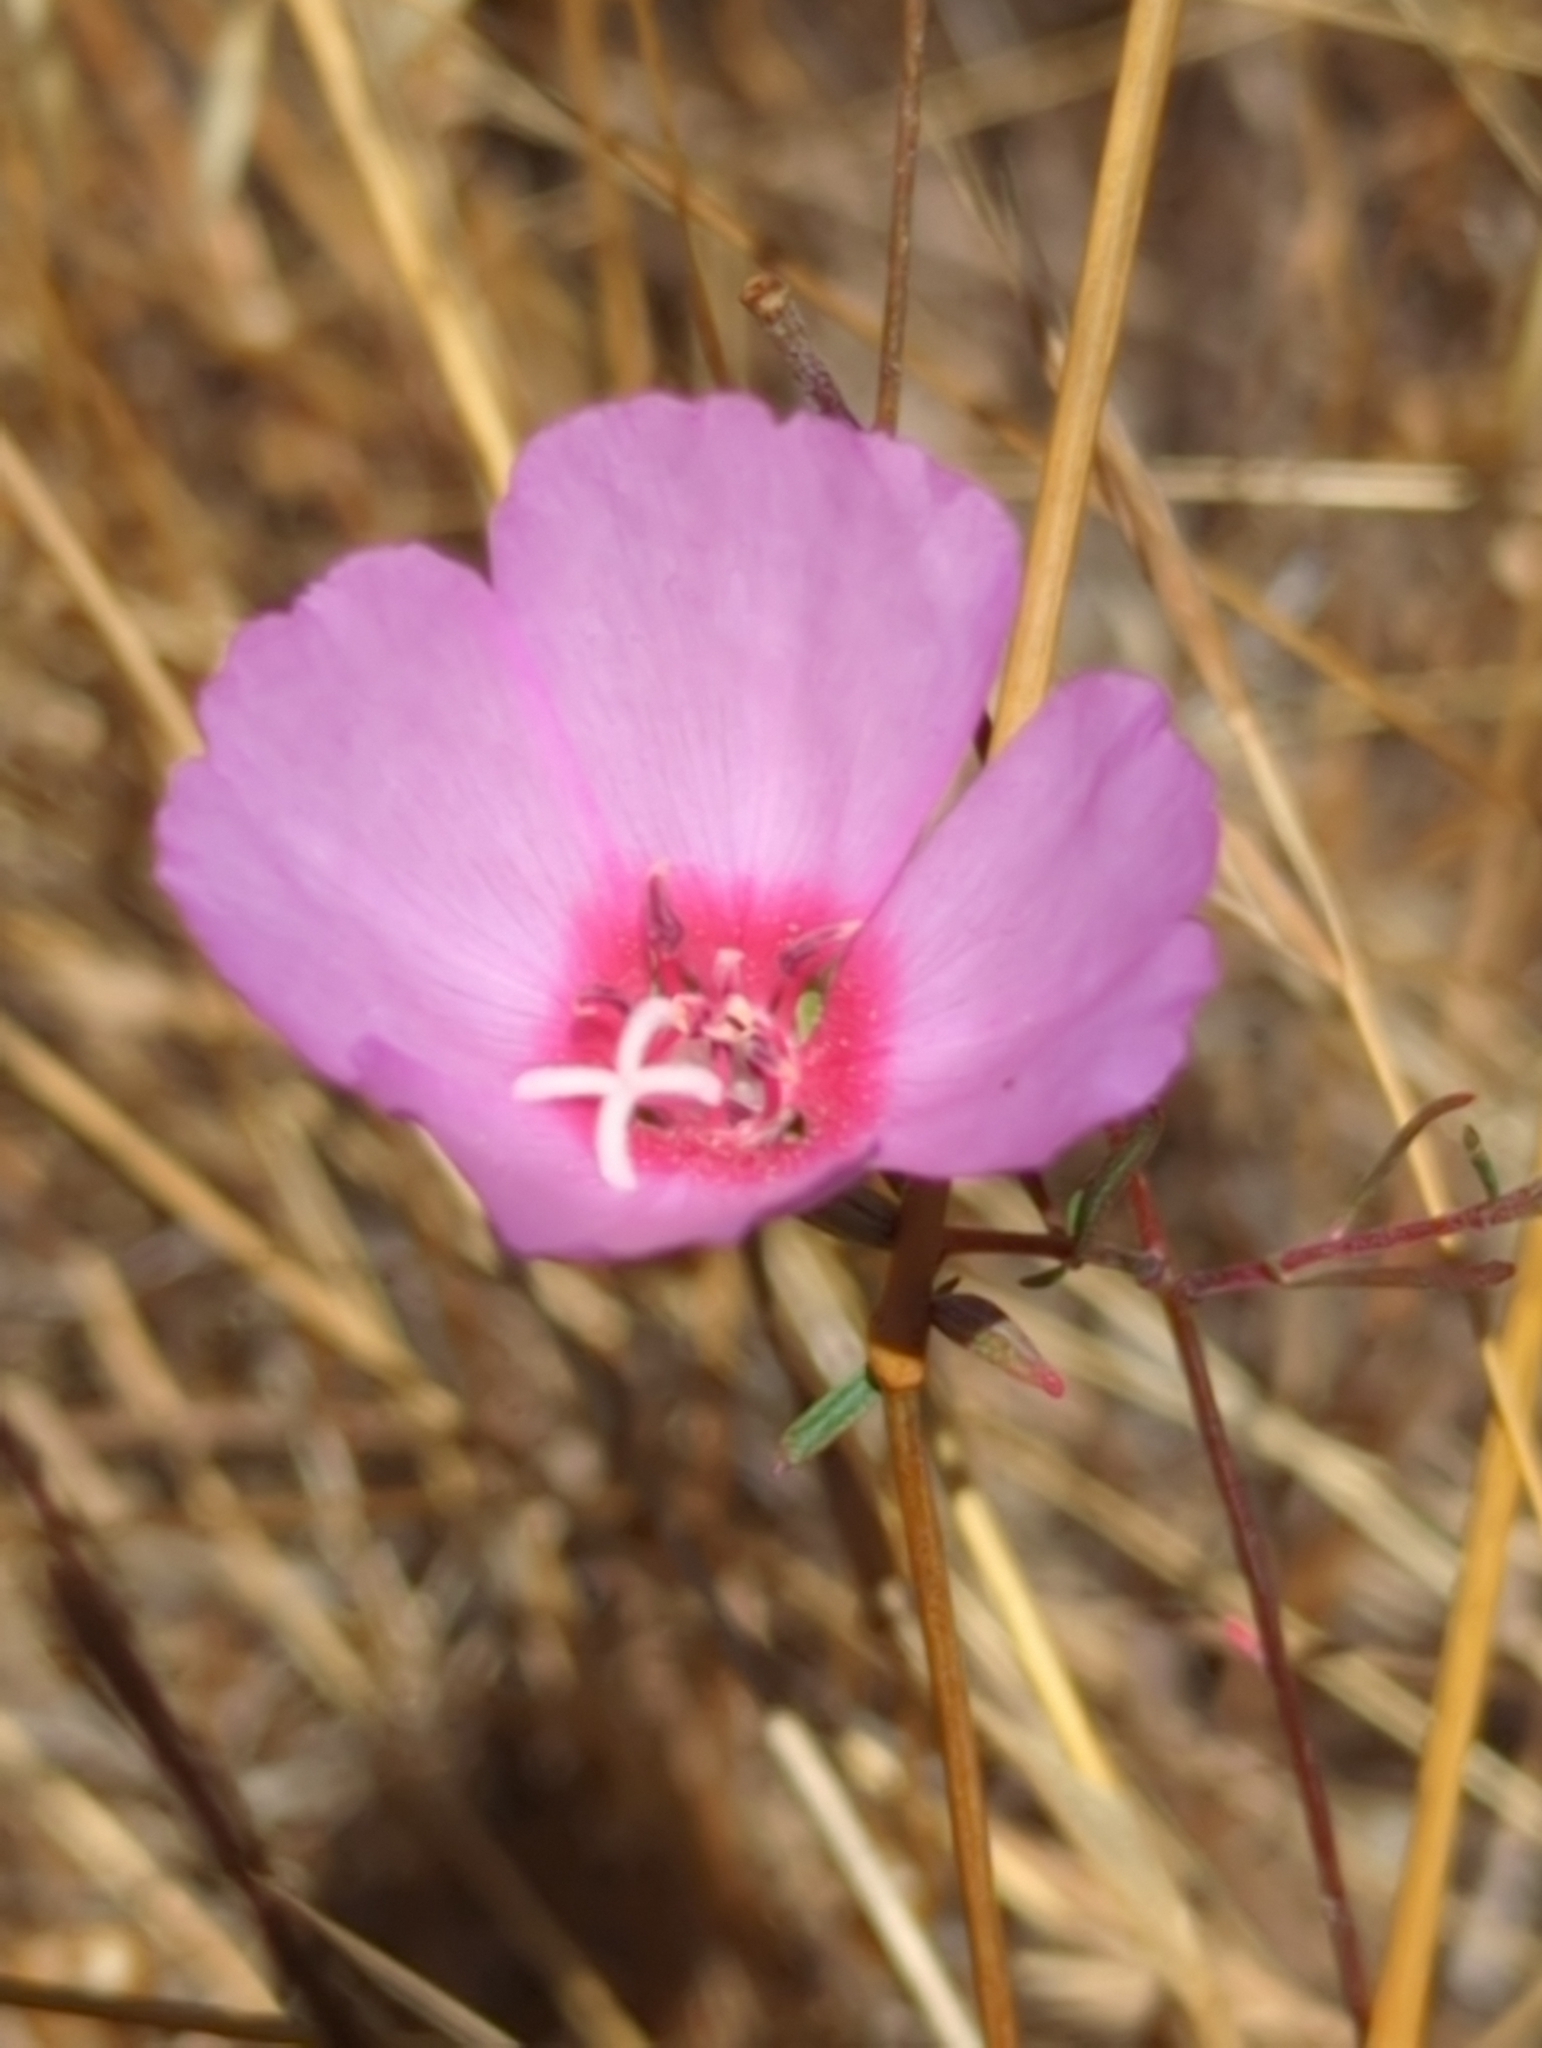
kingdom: Plantae
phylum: Tracheophyta
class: Magnoliopsida
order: Myrtales
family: Onagraceae
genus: Clarkia
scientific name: Clarkia rubicunda
